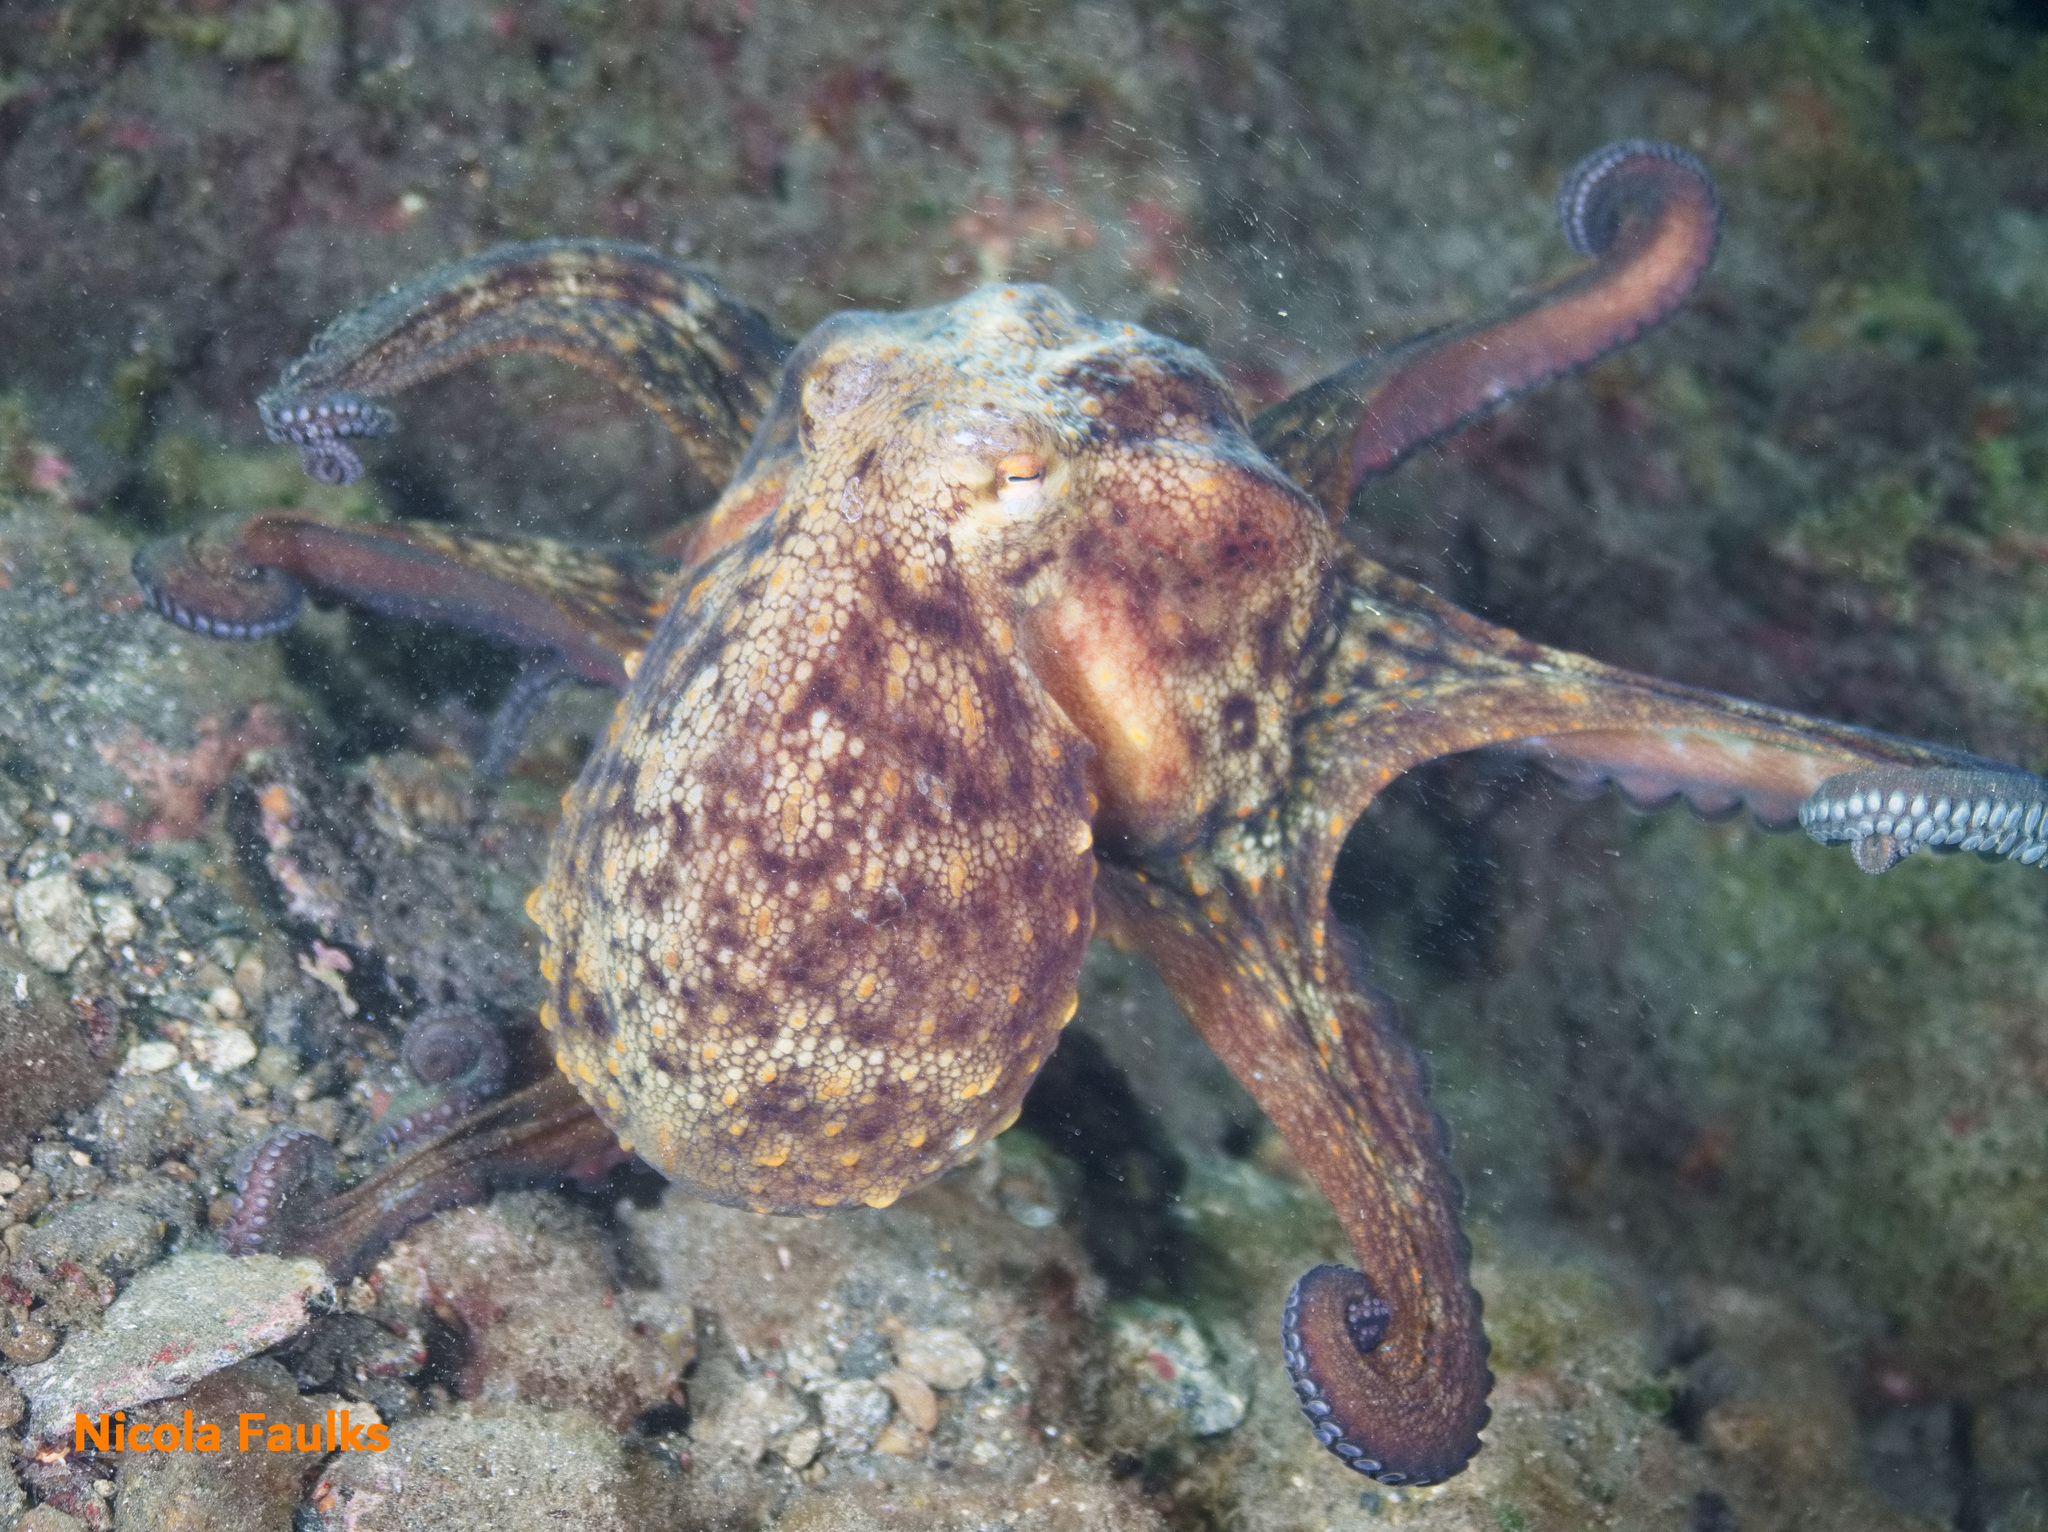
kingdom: Animalia
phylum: Mollusca
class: Cephalopoda
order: Octopoda
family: Octopodidae
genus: Octopus
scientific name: Octopus vulgaris
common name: Common octopus
